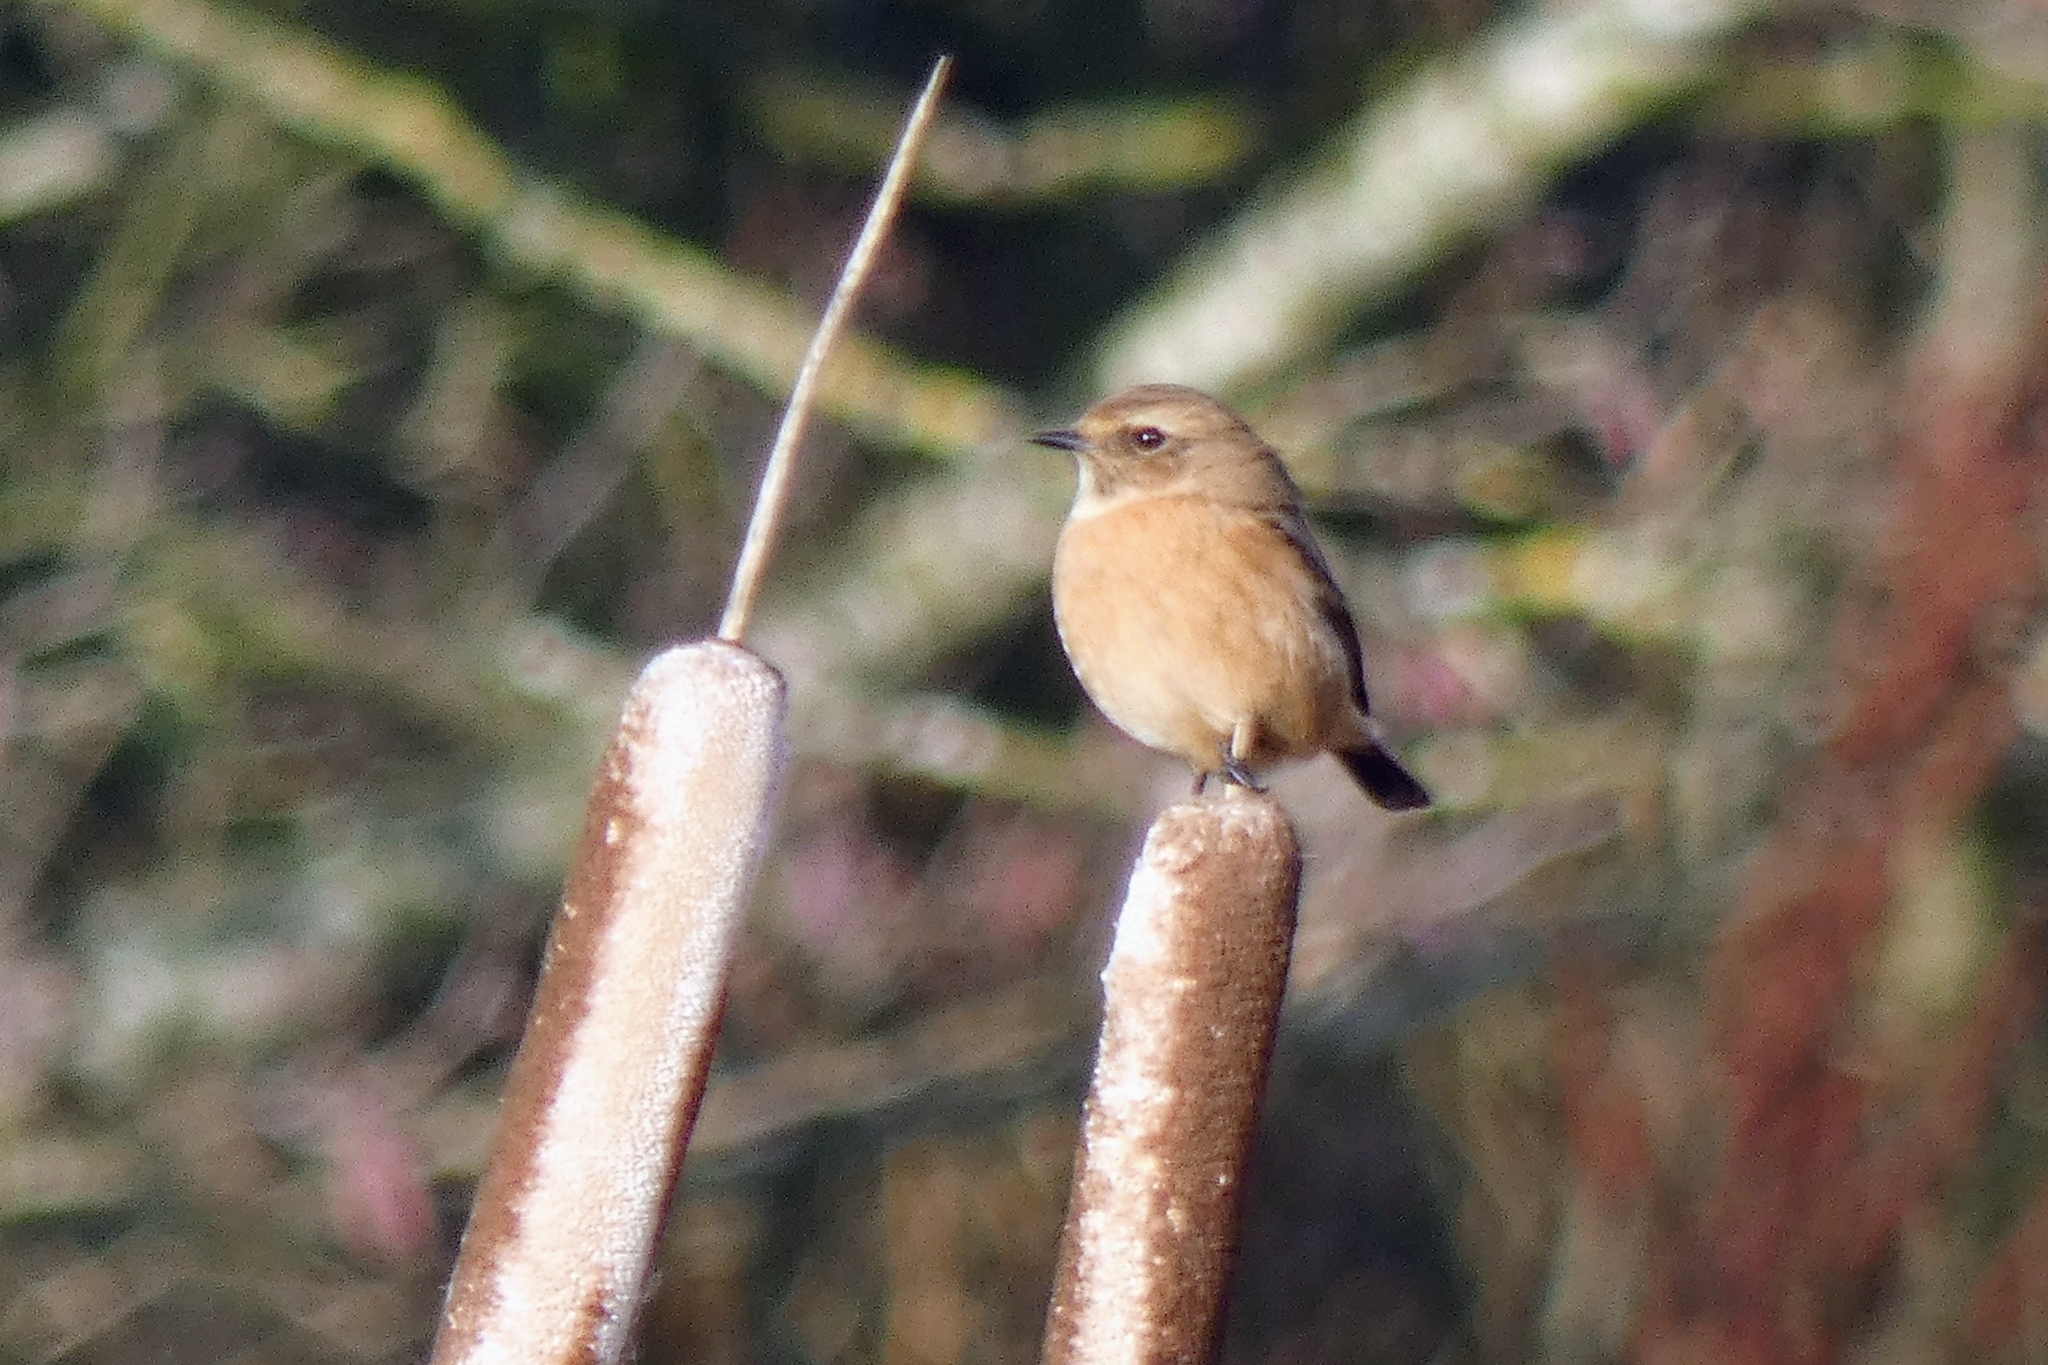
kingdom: Animalia
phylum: Chordata
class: Aves
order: Passeriformes
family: Muscicapidae
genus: Saxicola
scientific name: Saxicola rubicola
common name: European stonechat
